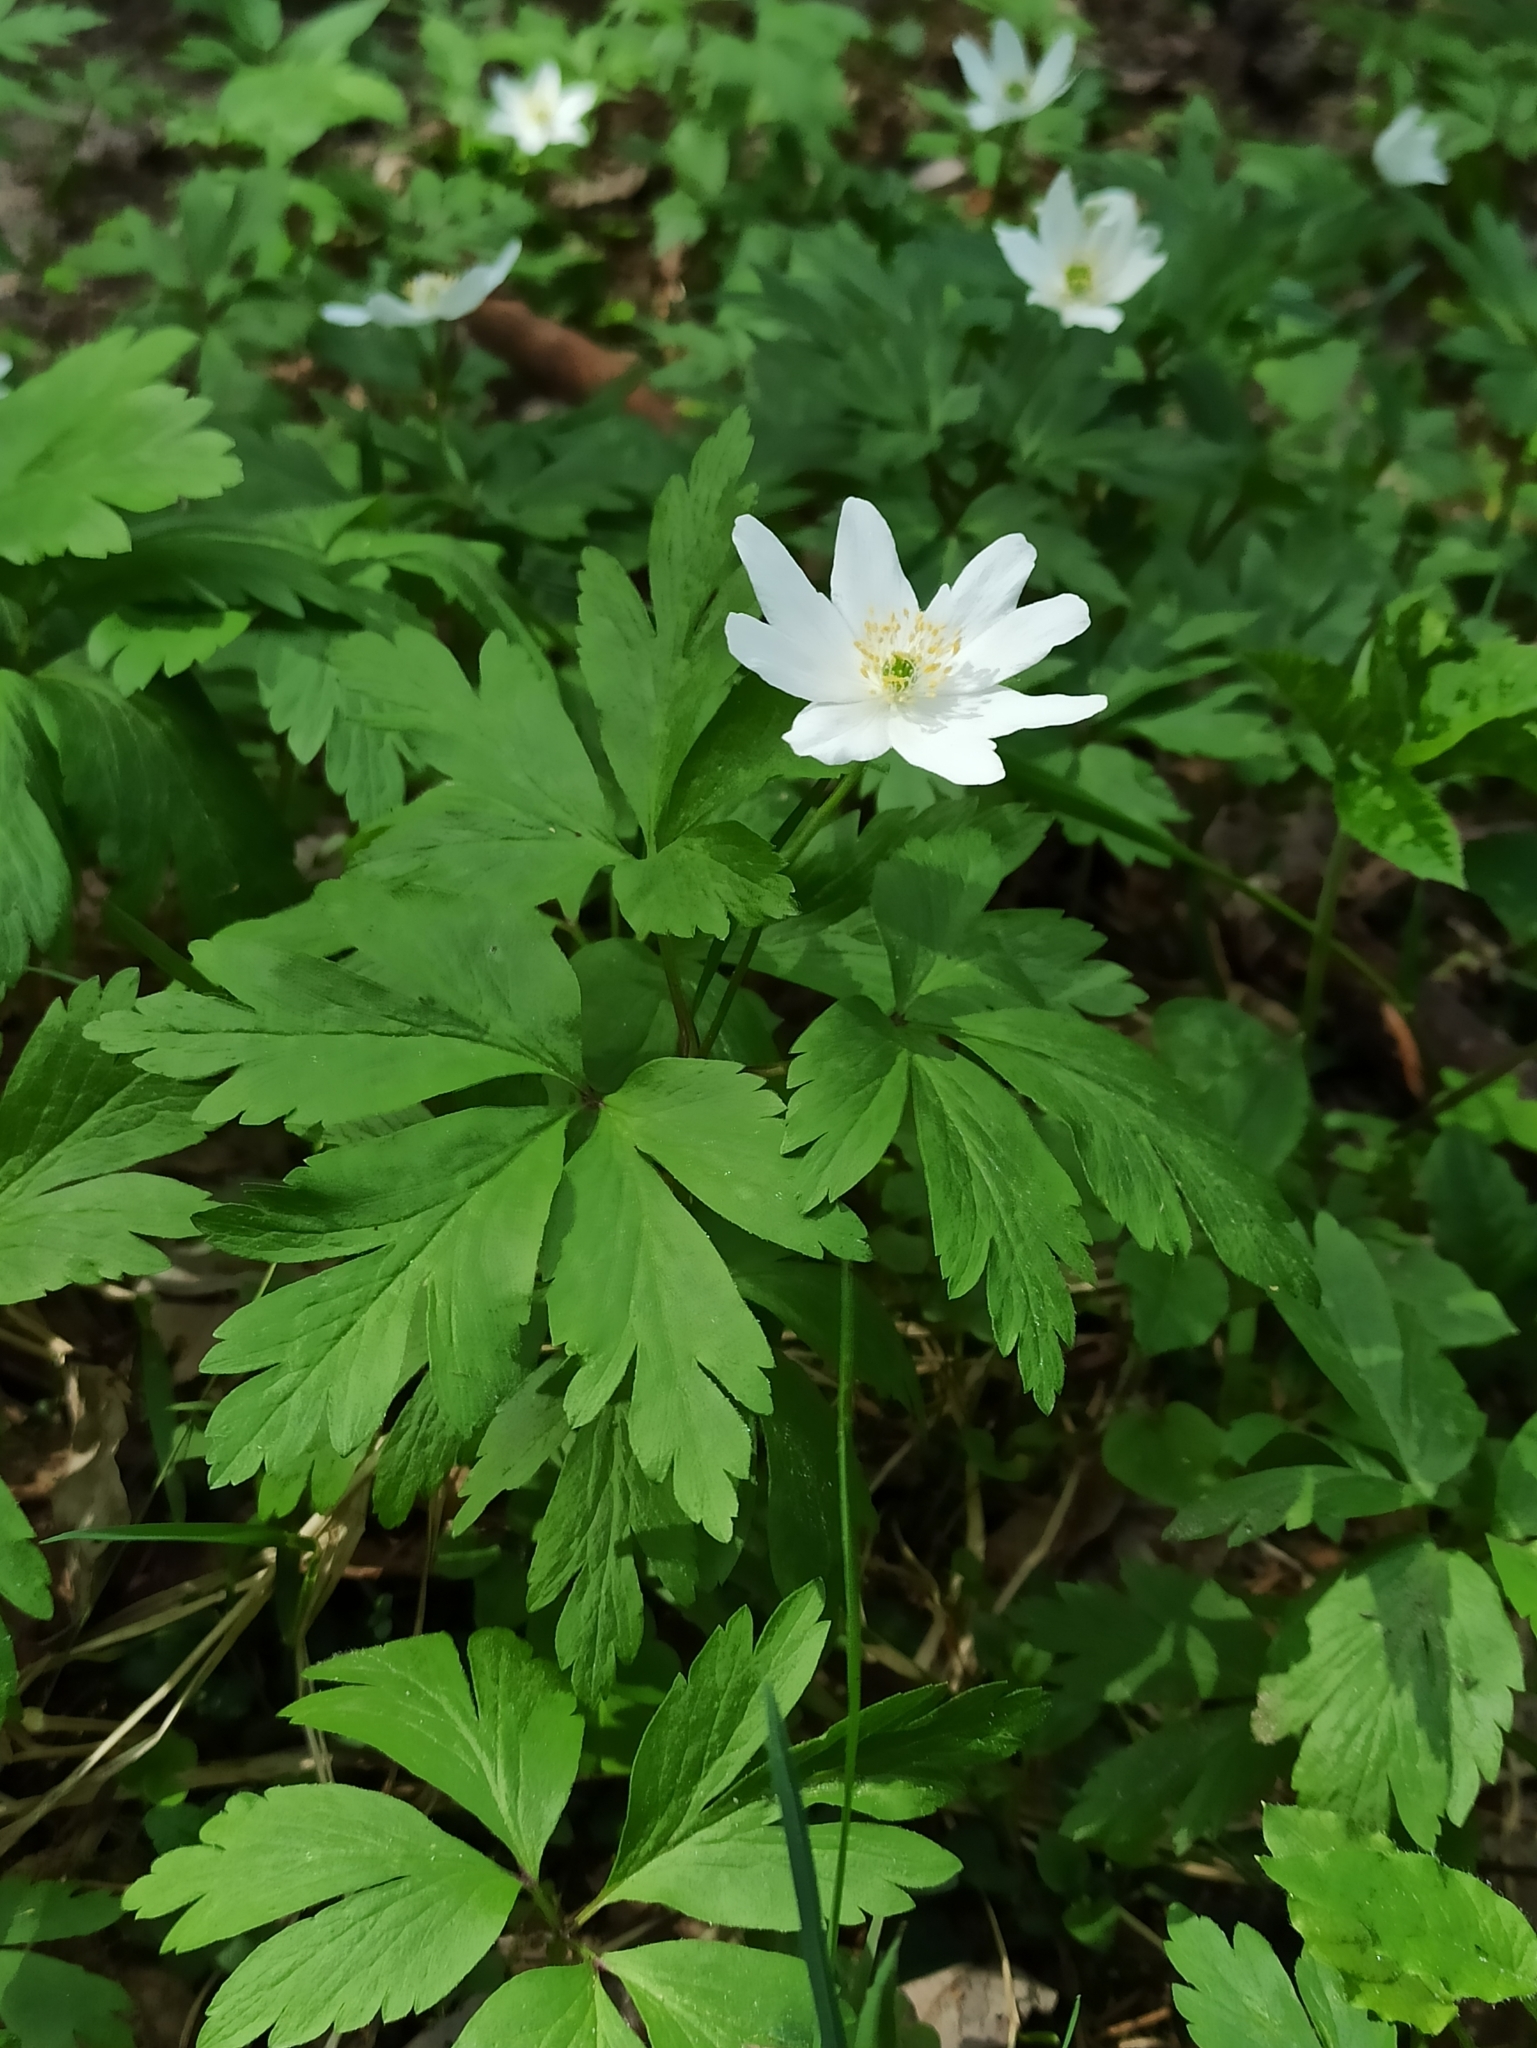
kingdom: Plantae
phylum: Tracheophyta
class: Magnoliopsida
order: Ranunculales
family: Ranunculaceae
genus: Anemone
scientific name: Anemone nemorosa
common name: Wood anemone
